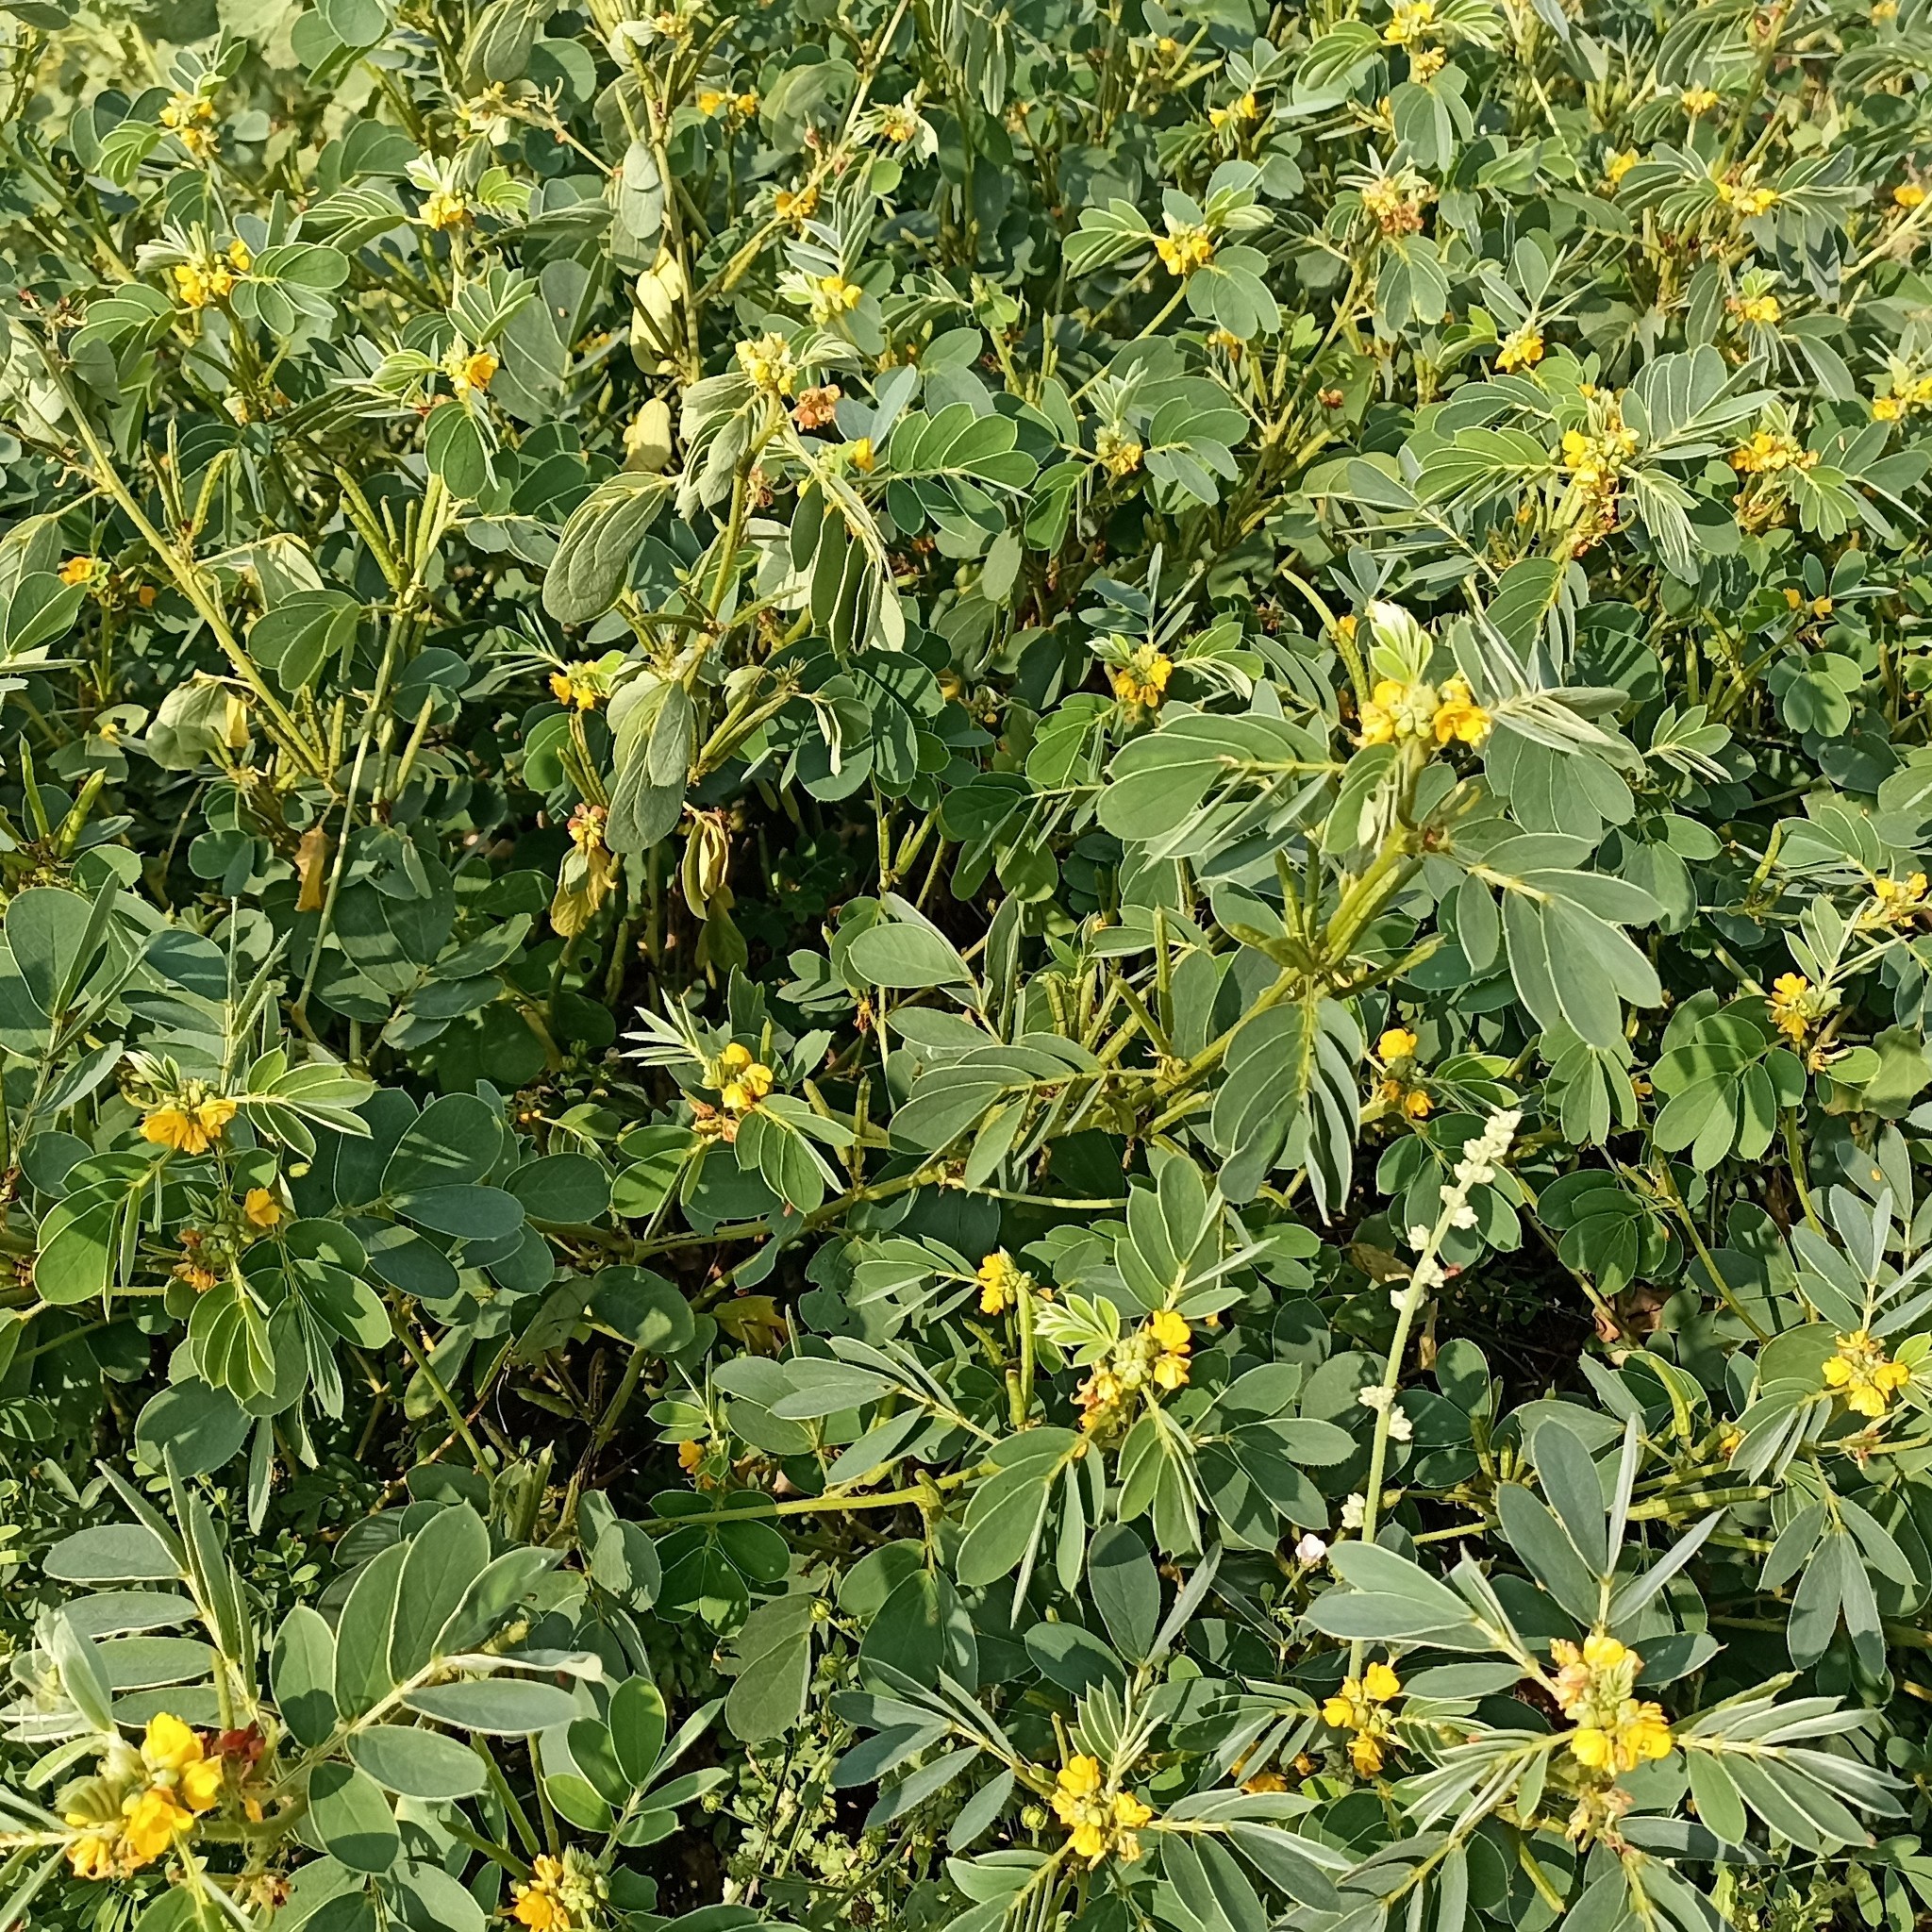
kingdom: Plantae
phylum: Tracheophyta
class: Magnoliopsida
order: Fabales
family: Fabaceae
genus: Senna
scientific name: Senna uniflora
